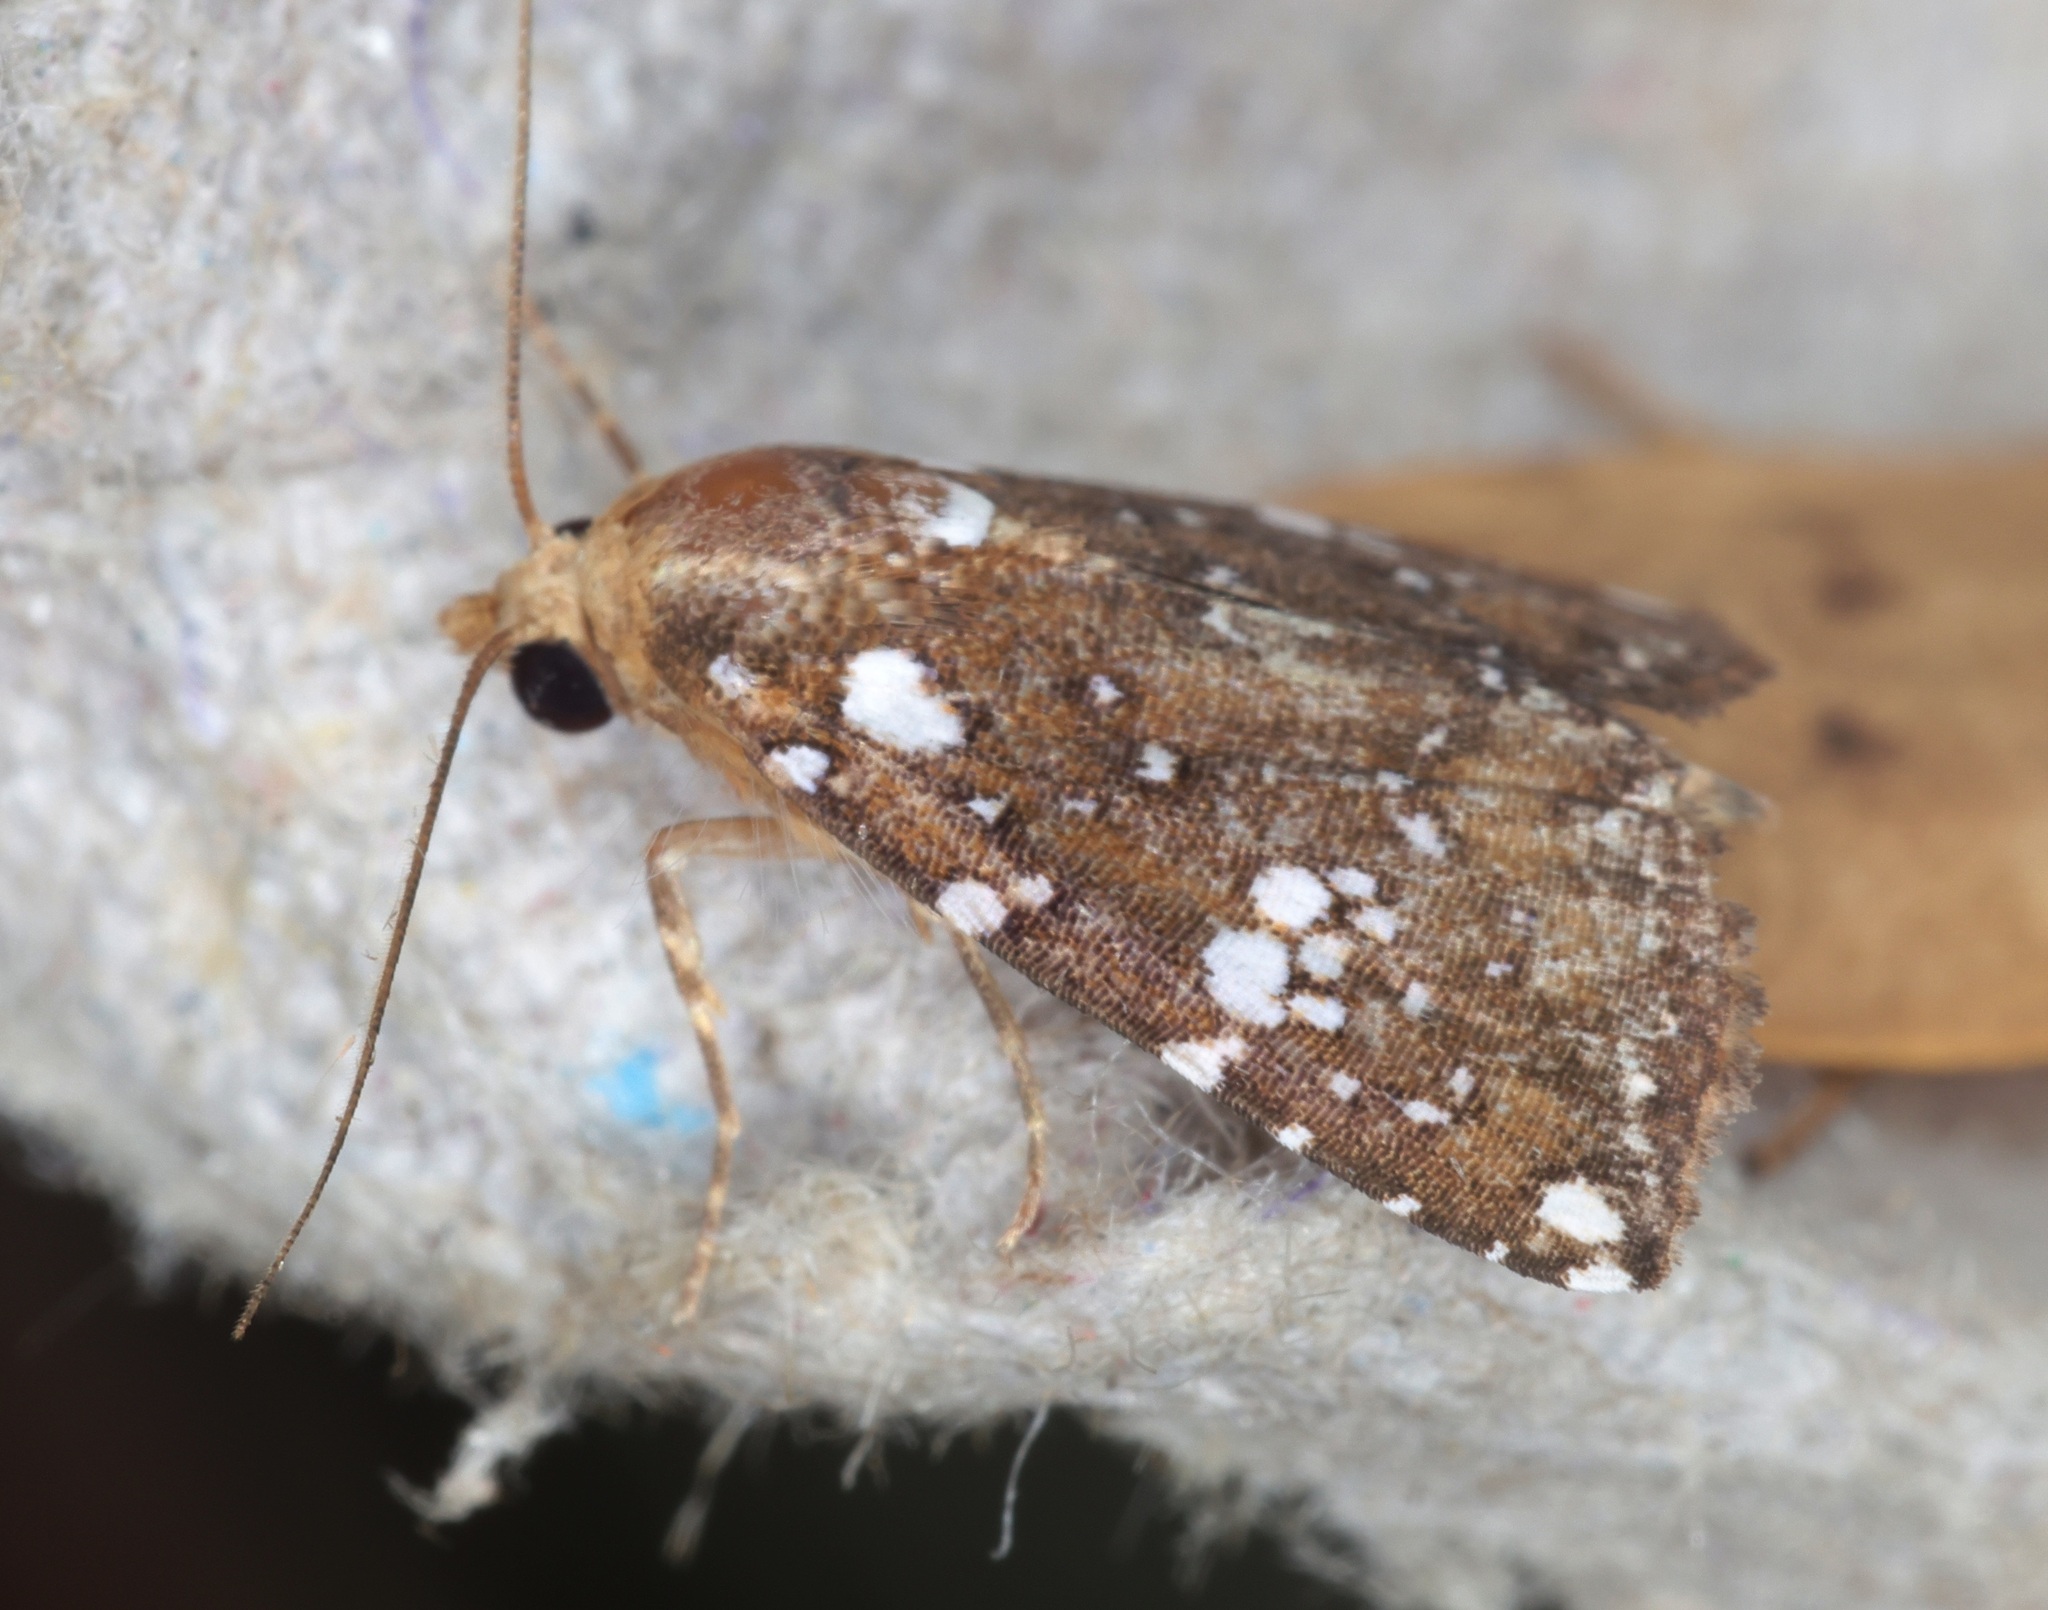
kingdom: Animalia
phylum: Arthropoda
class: Insecta
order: Lepidoptera
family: Erebidae
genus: Rivula
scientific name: Rivula niveipuncta
